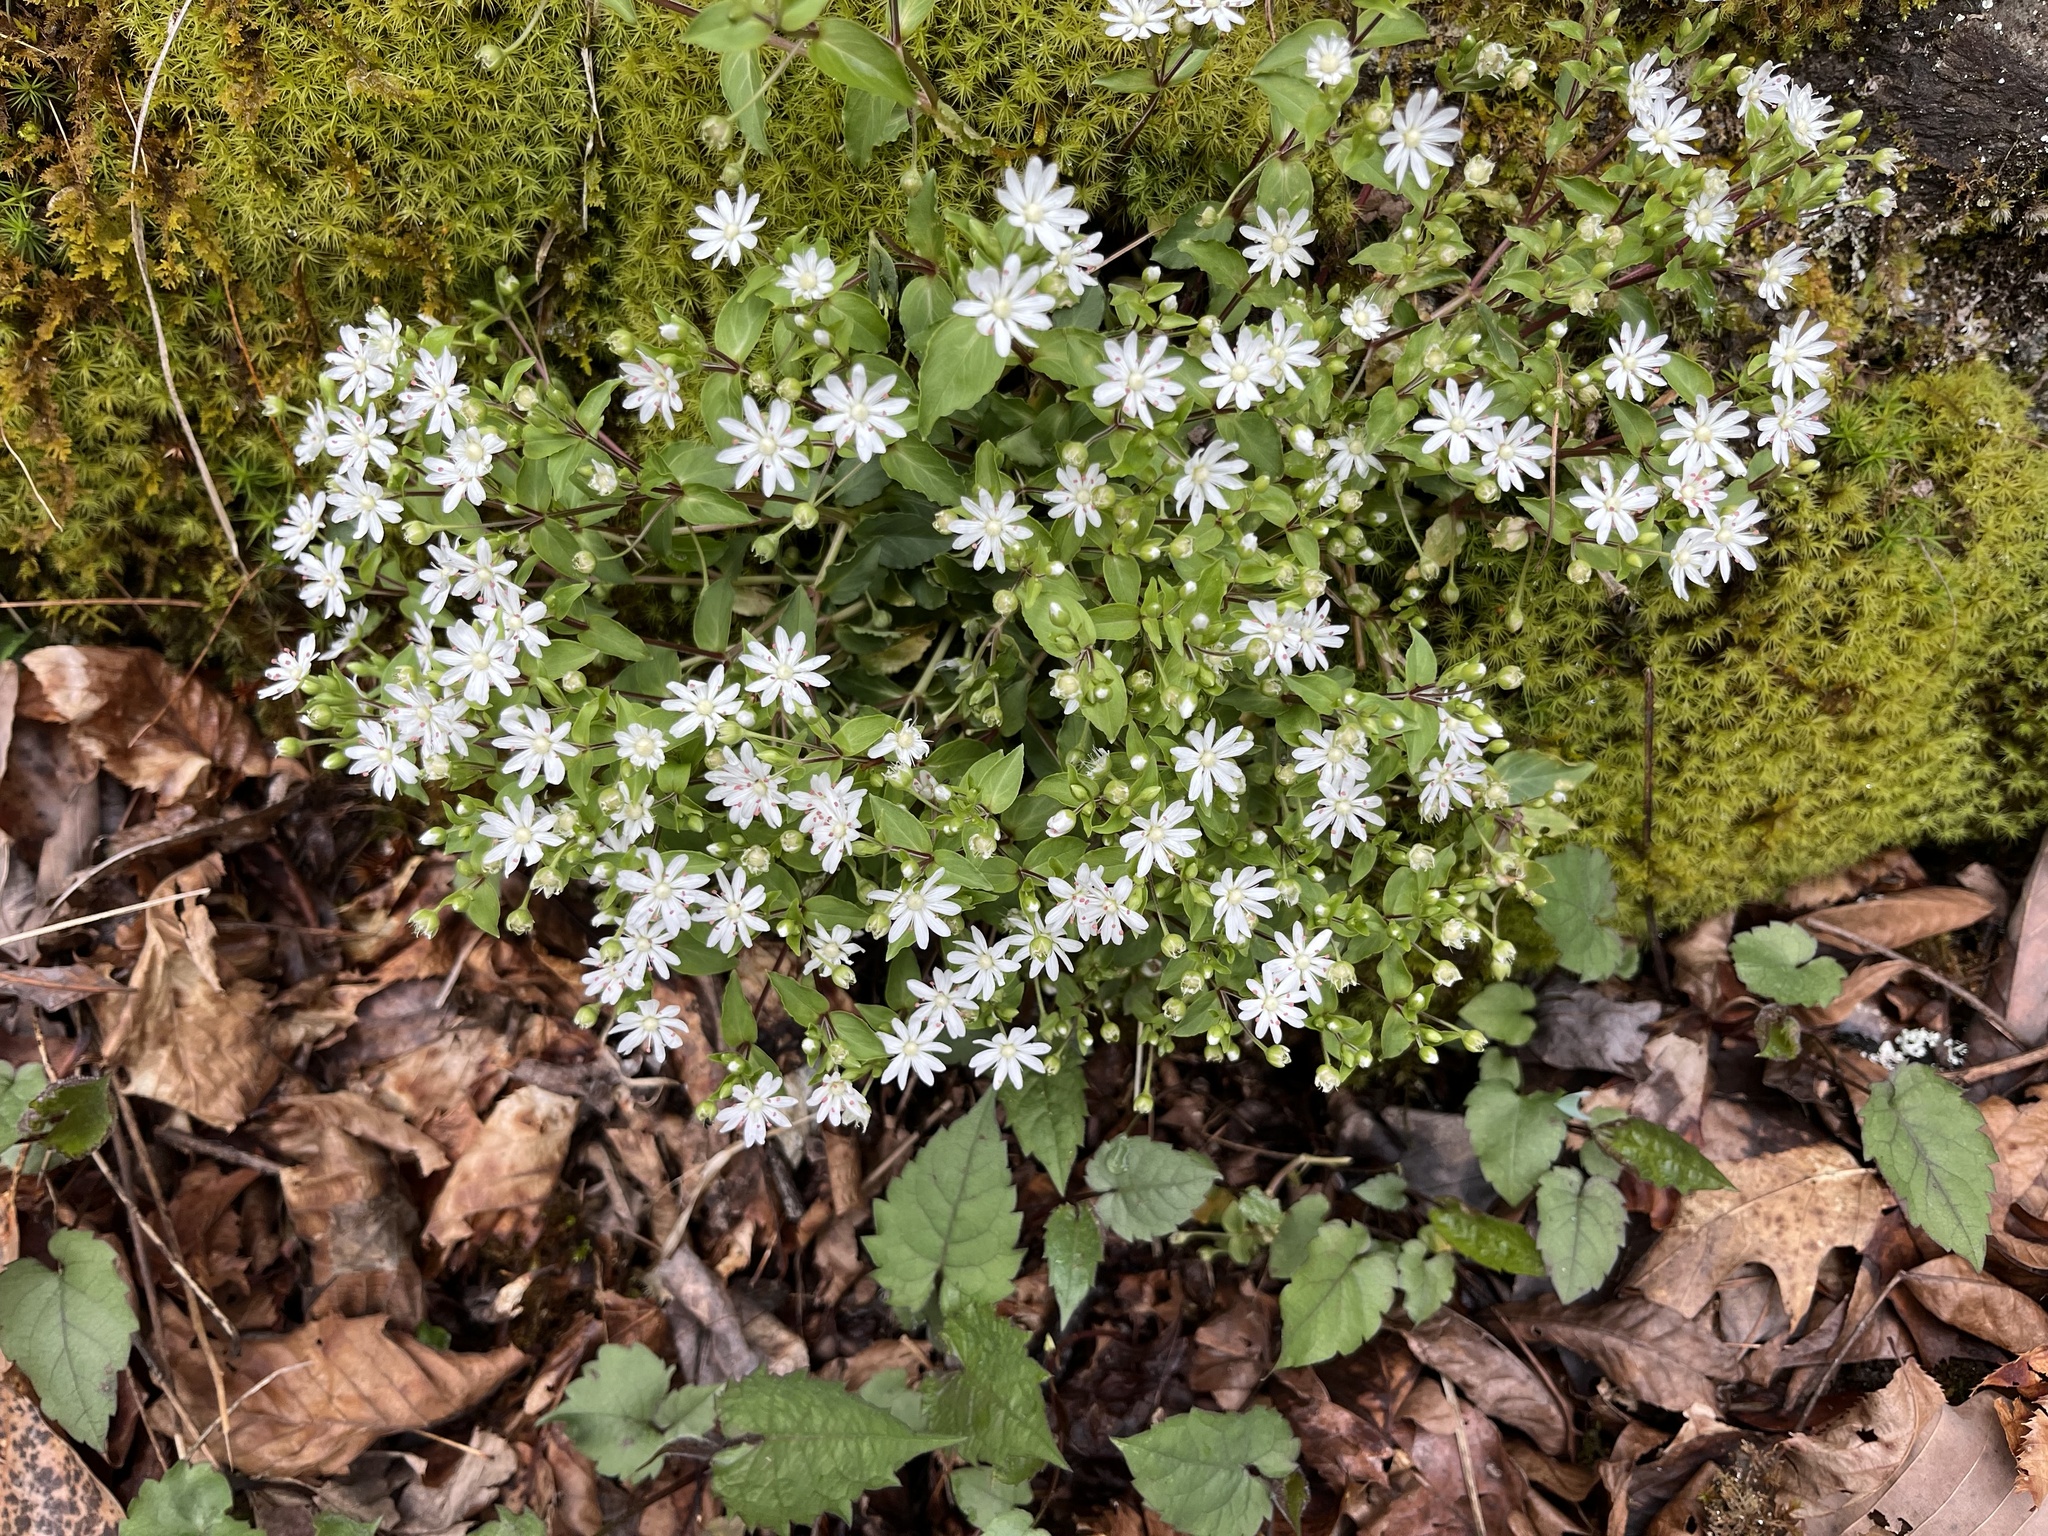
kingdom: Plantae
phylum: Tracheophyta
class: Magnoliopsida
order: Caryophyllales
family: Caryophyllaceae
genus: Stellaria
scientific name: Stellaria pubera
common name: Star chickweed
